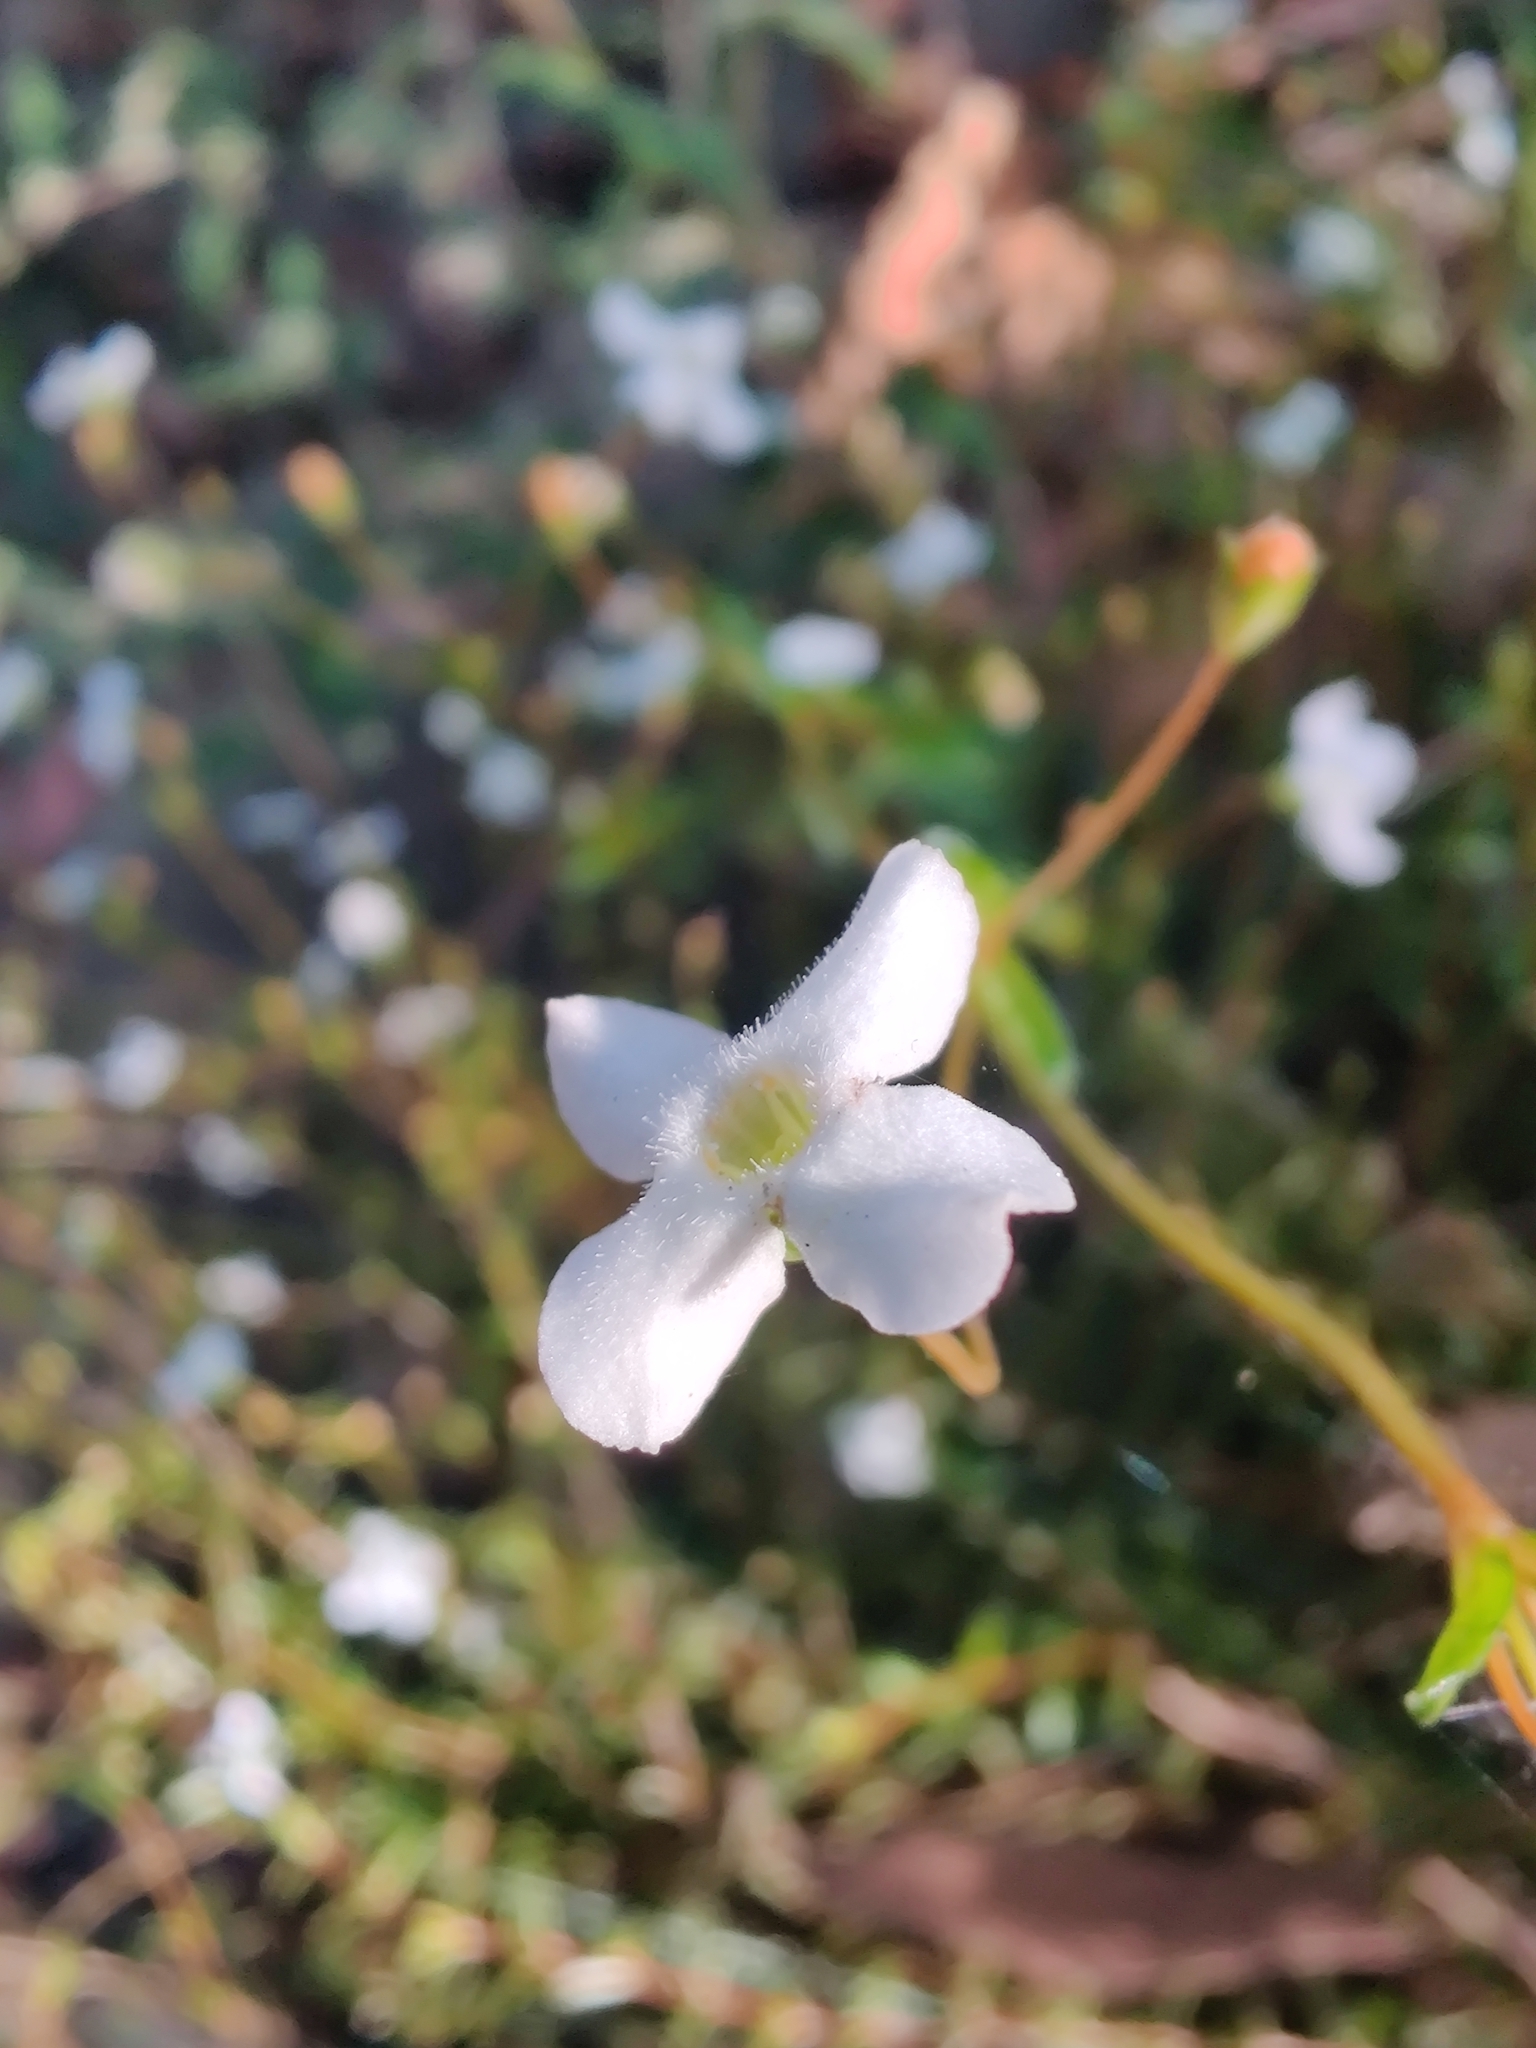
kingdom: Plantae
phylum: Tracheophyta
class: Magnoliopsida
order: Gentianales
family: Loganiaceae
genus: Mitrasacme
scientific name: Mitrasacme polymorpha
